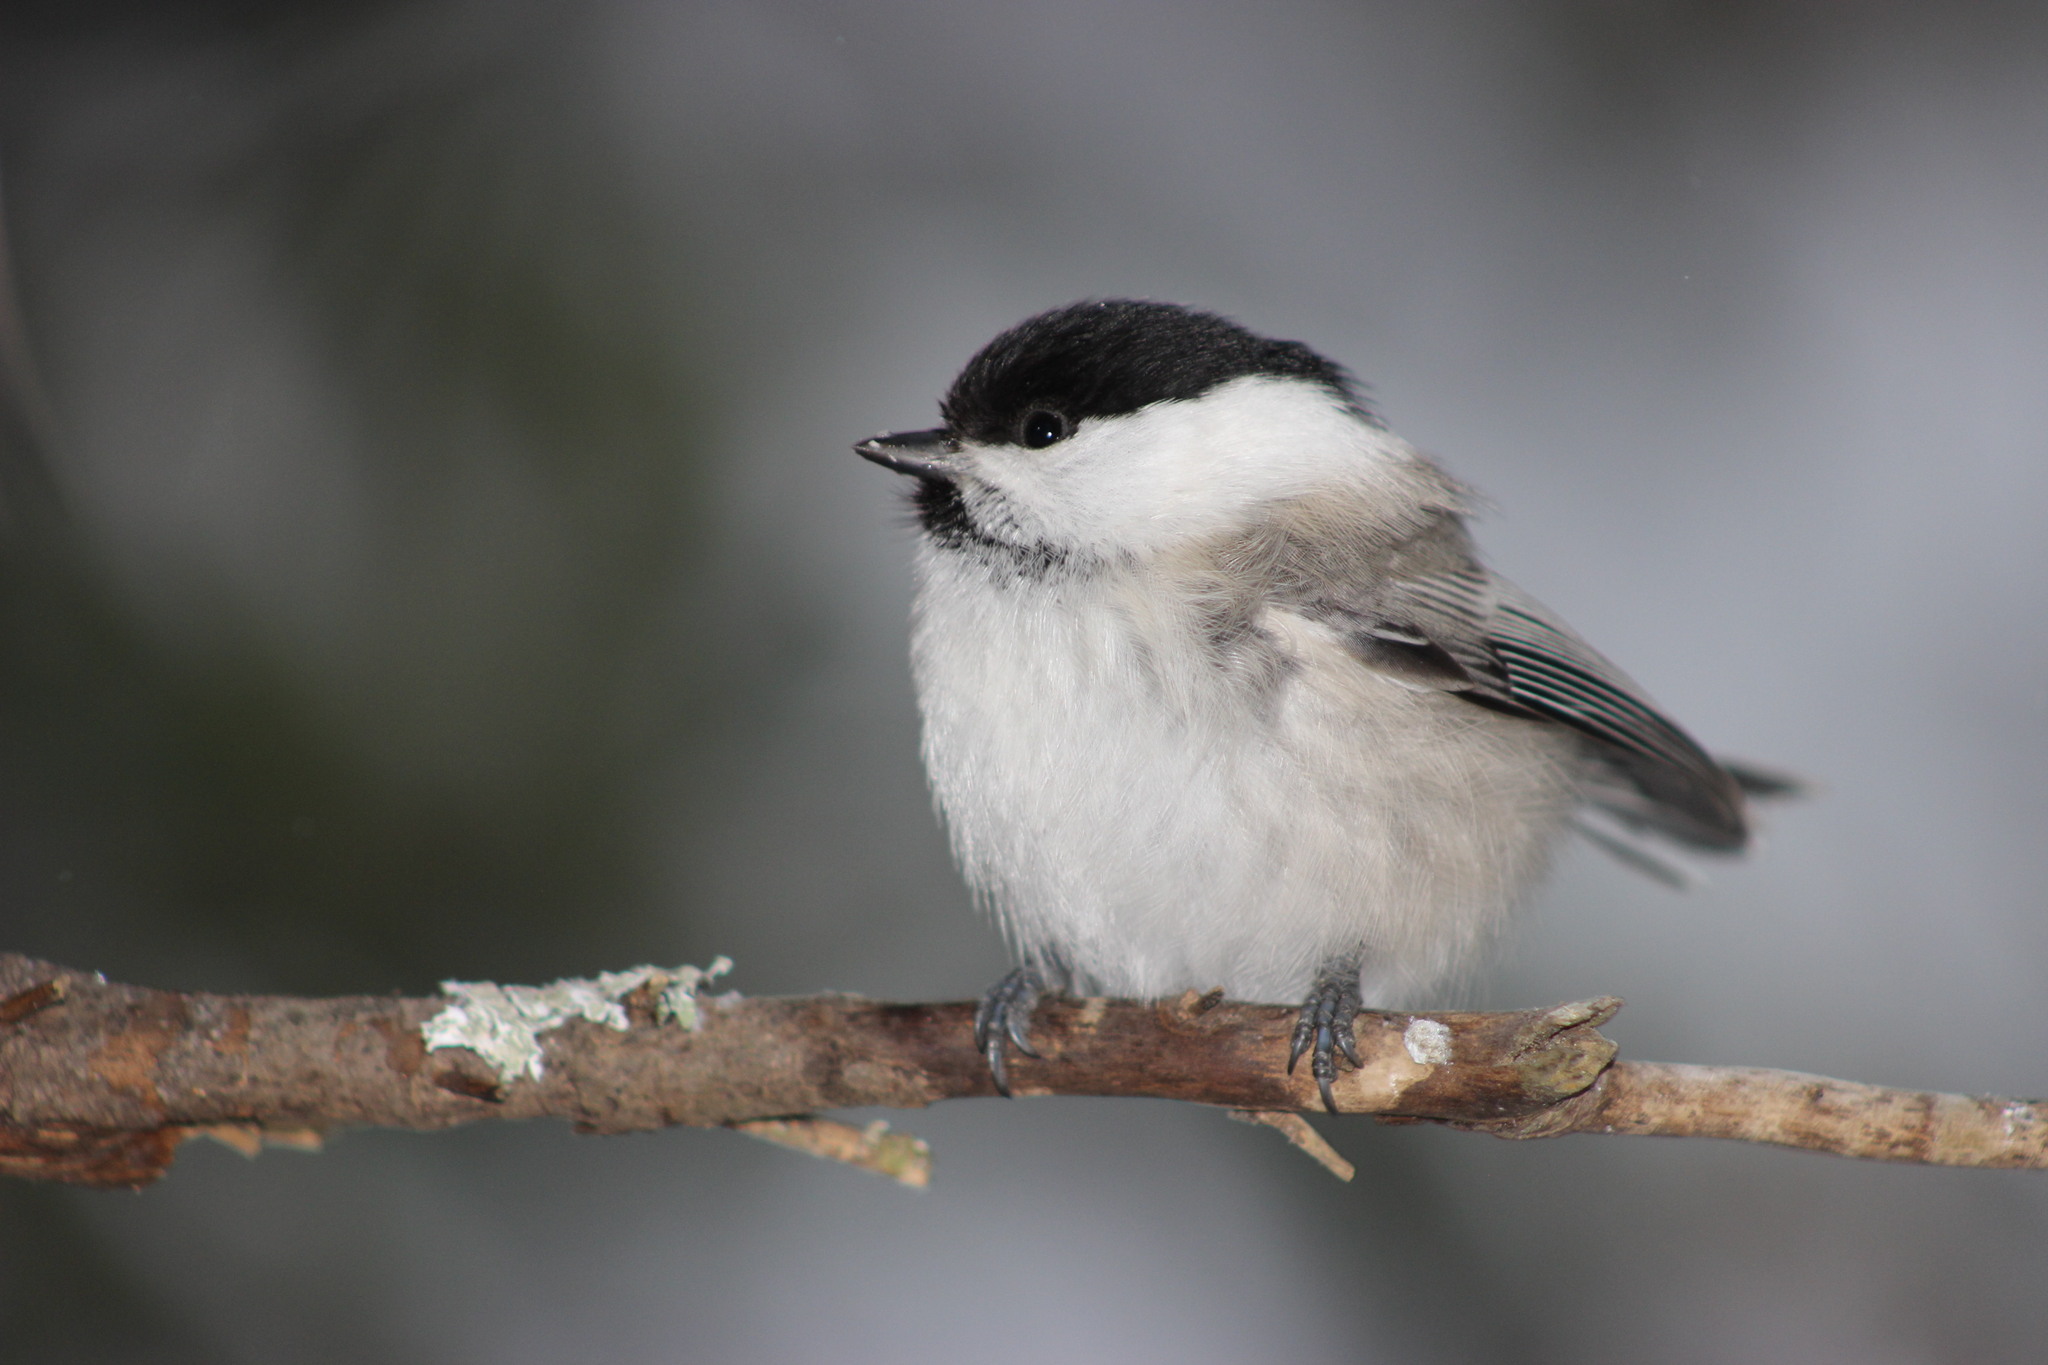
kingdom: Animalia
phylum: Chordata
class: Aves
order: Passeriformes
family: Paridae
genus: Poecile
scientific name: Poecile montanus
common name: Willow tit
